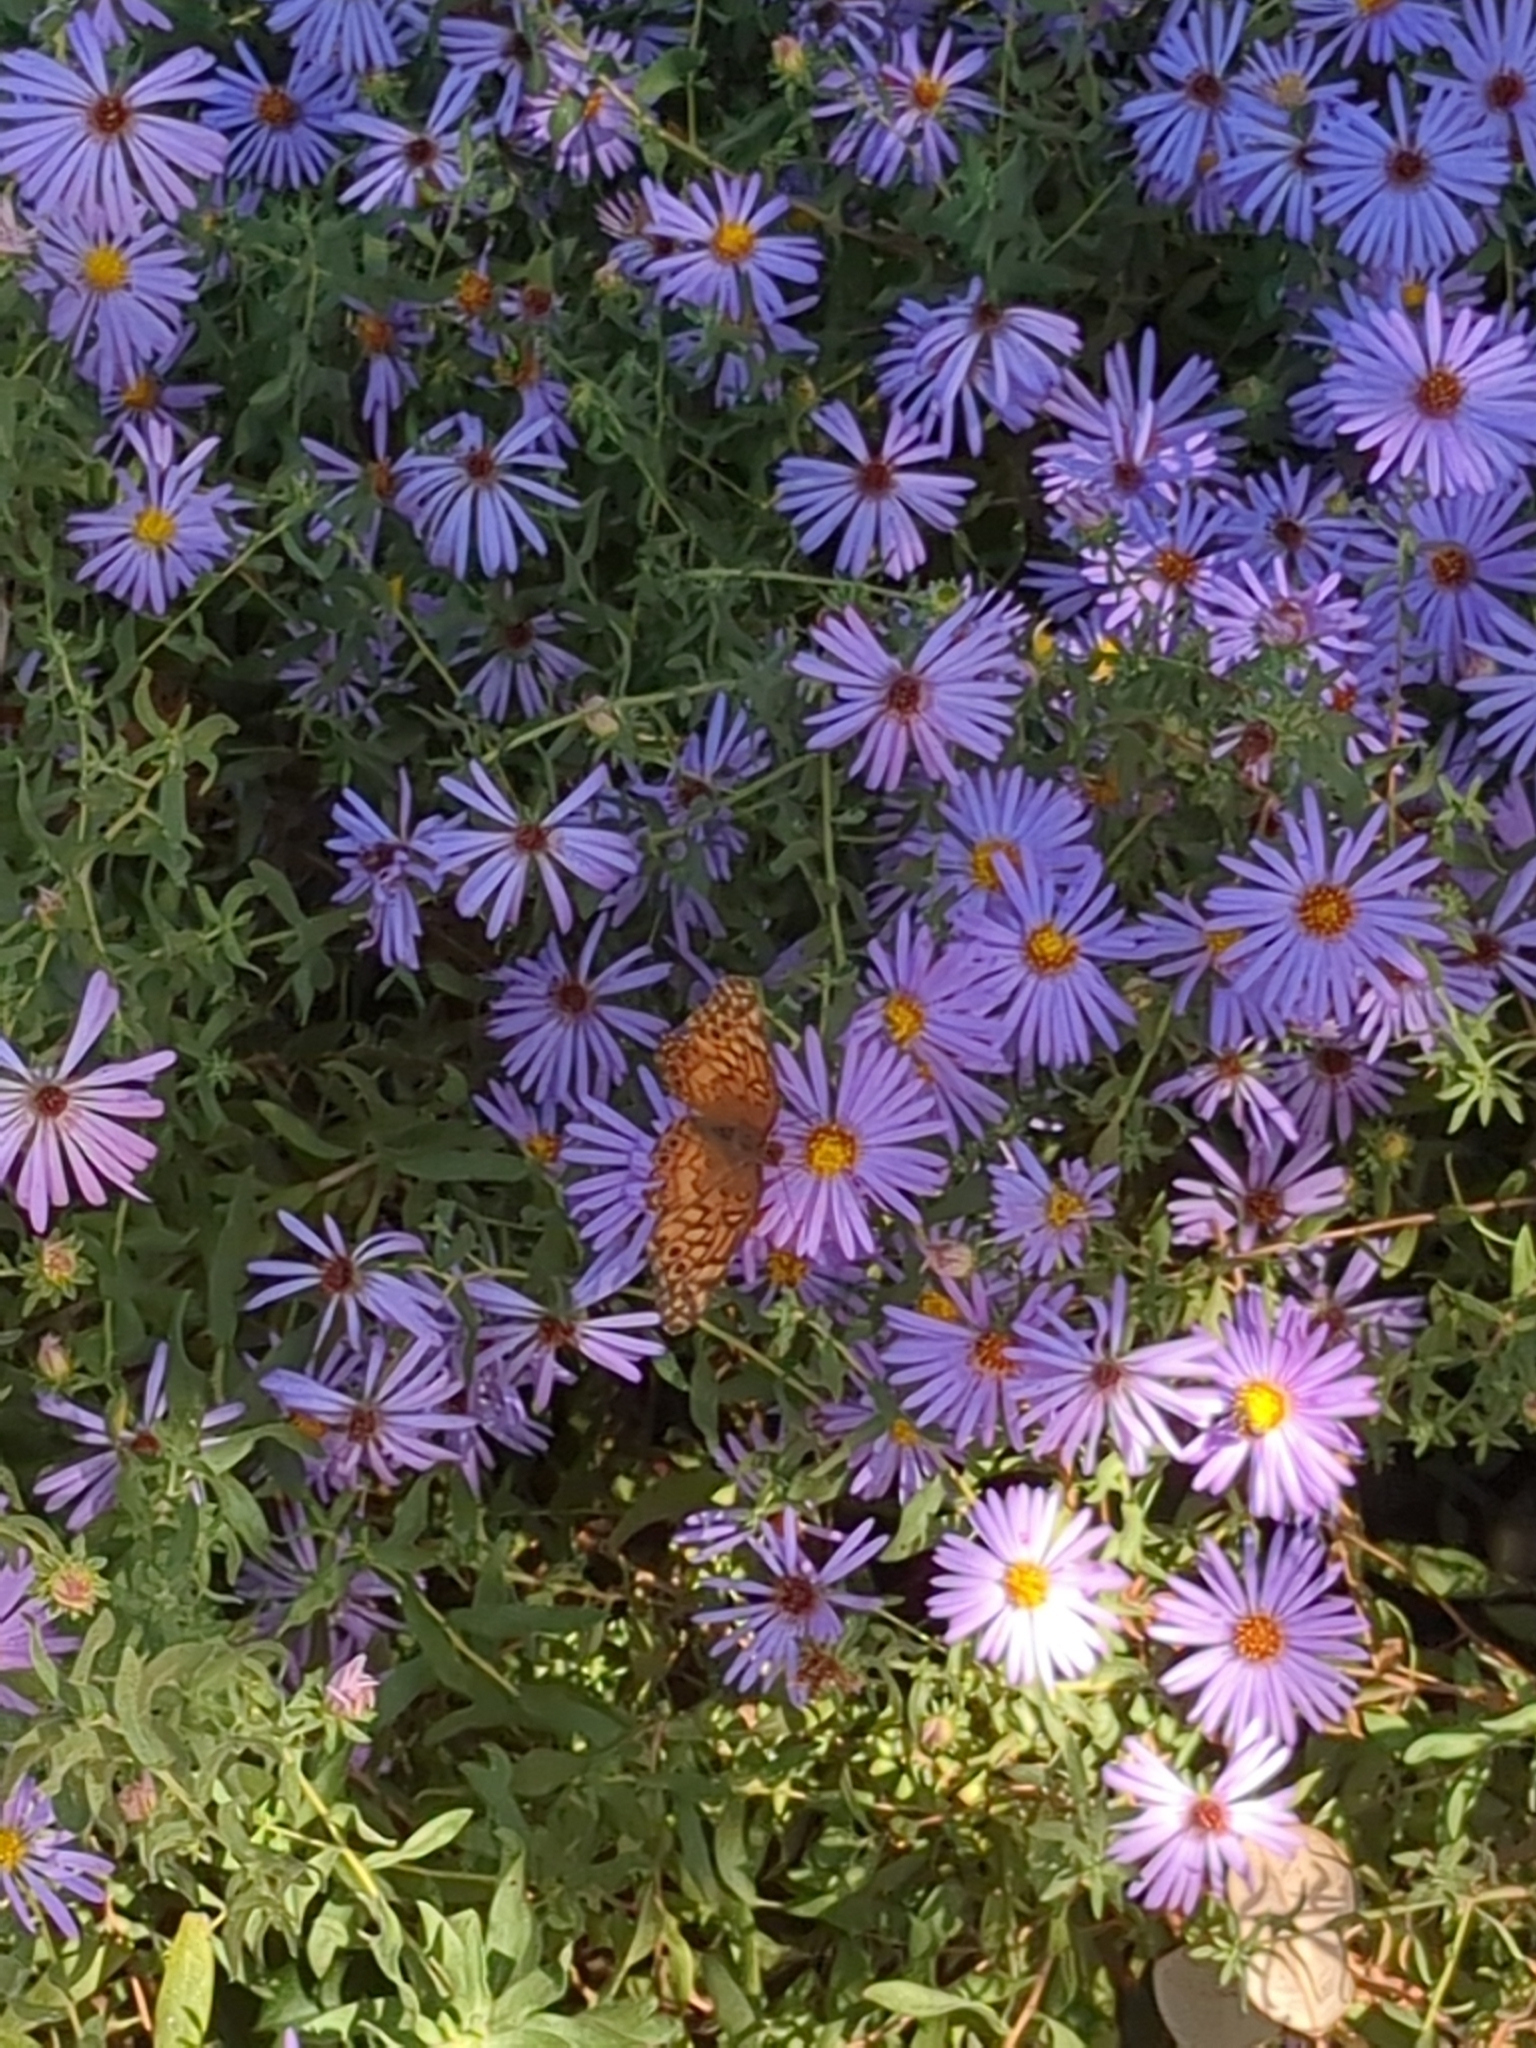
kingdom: Animalia
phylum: Arthropoda
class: Insecta
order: Lepidoptera
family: Nymphalidae
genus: Euptoieta
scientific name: Euptoieta claudia
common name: Variegated fritillary
